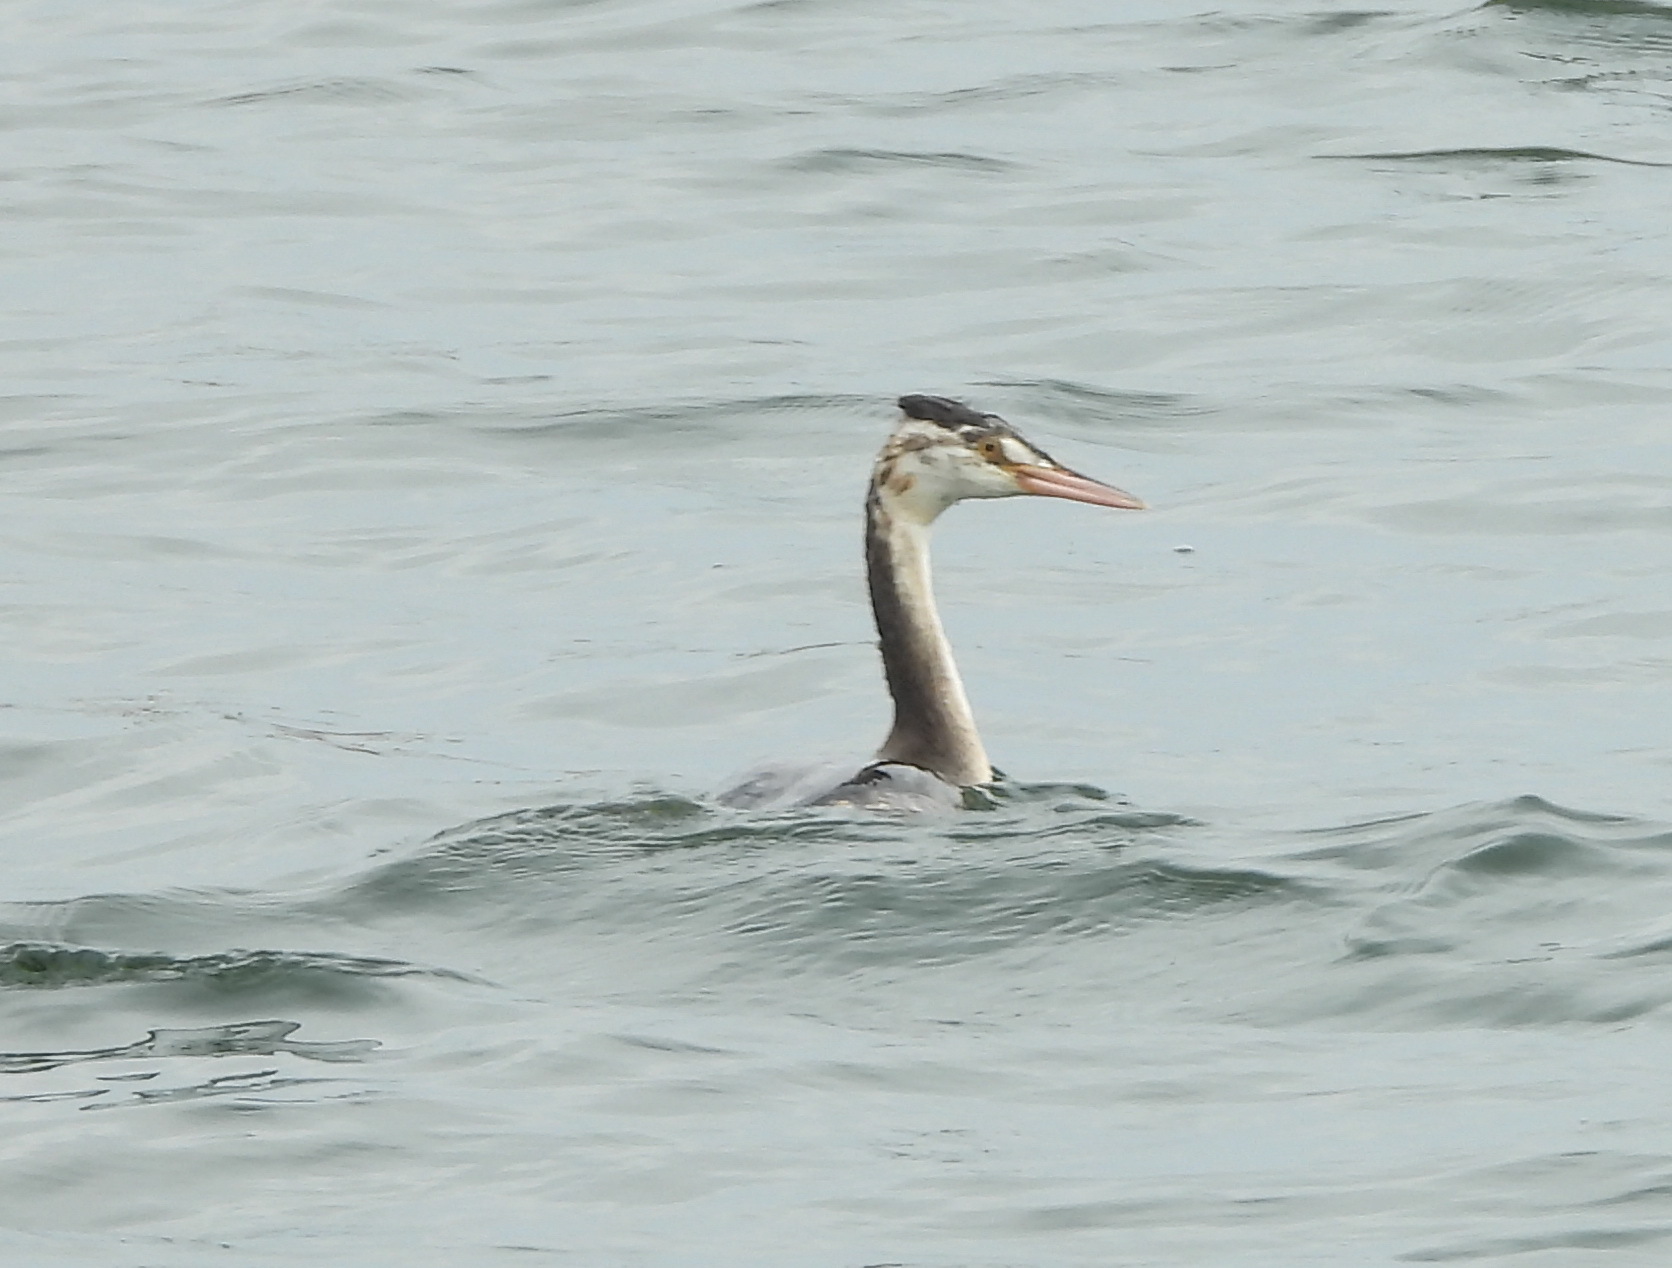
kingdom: Animalia
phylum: Chordata
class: Aves
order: Podicipediformes
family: Podicipedidae
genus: Podiceps
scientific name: Podiceps cristatus
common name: Great crested grebe
